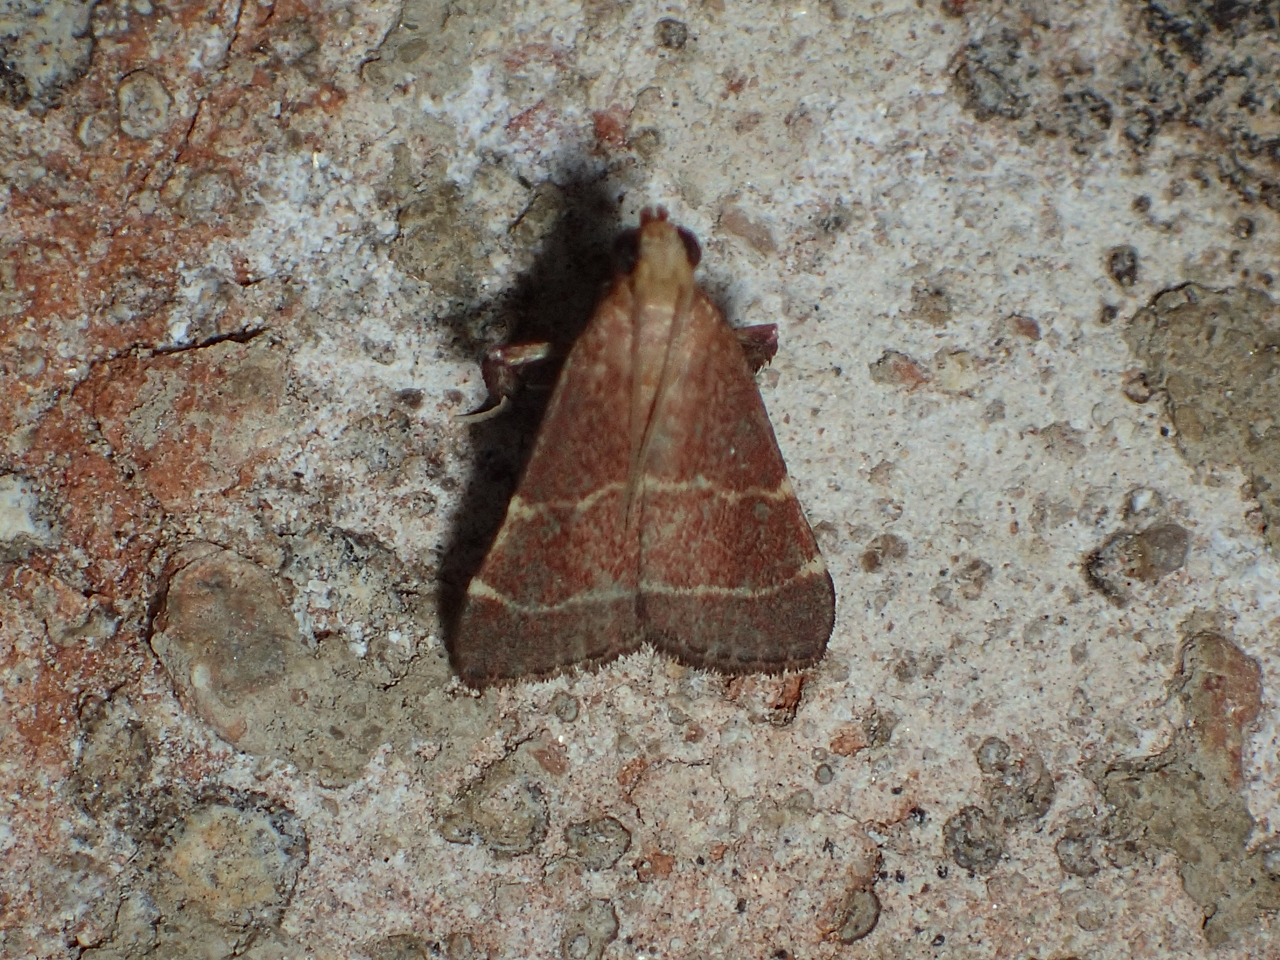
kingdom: Animalia
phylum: Arthropoda
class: Insecta
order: Lepidoptera
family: Pyralidae
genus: Arta
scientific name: Arta statalis
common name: Posturing arta moth
